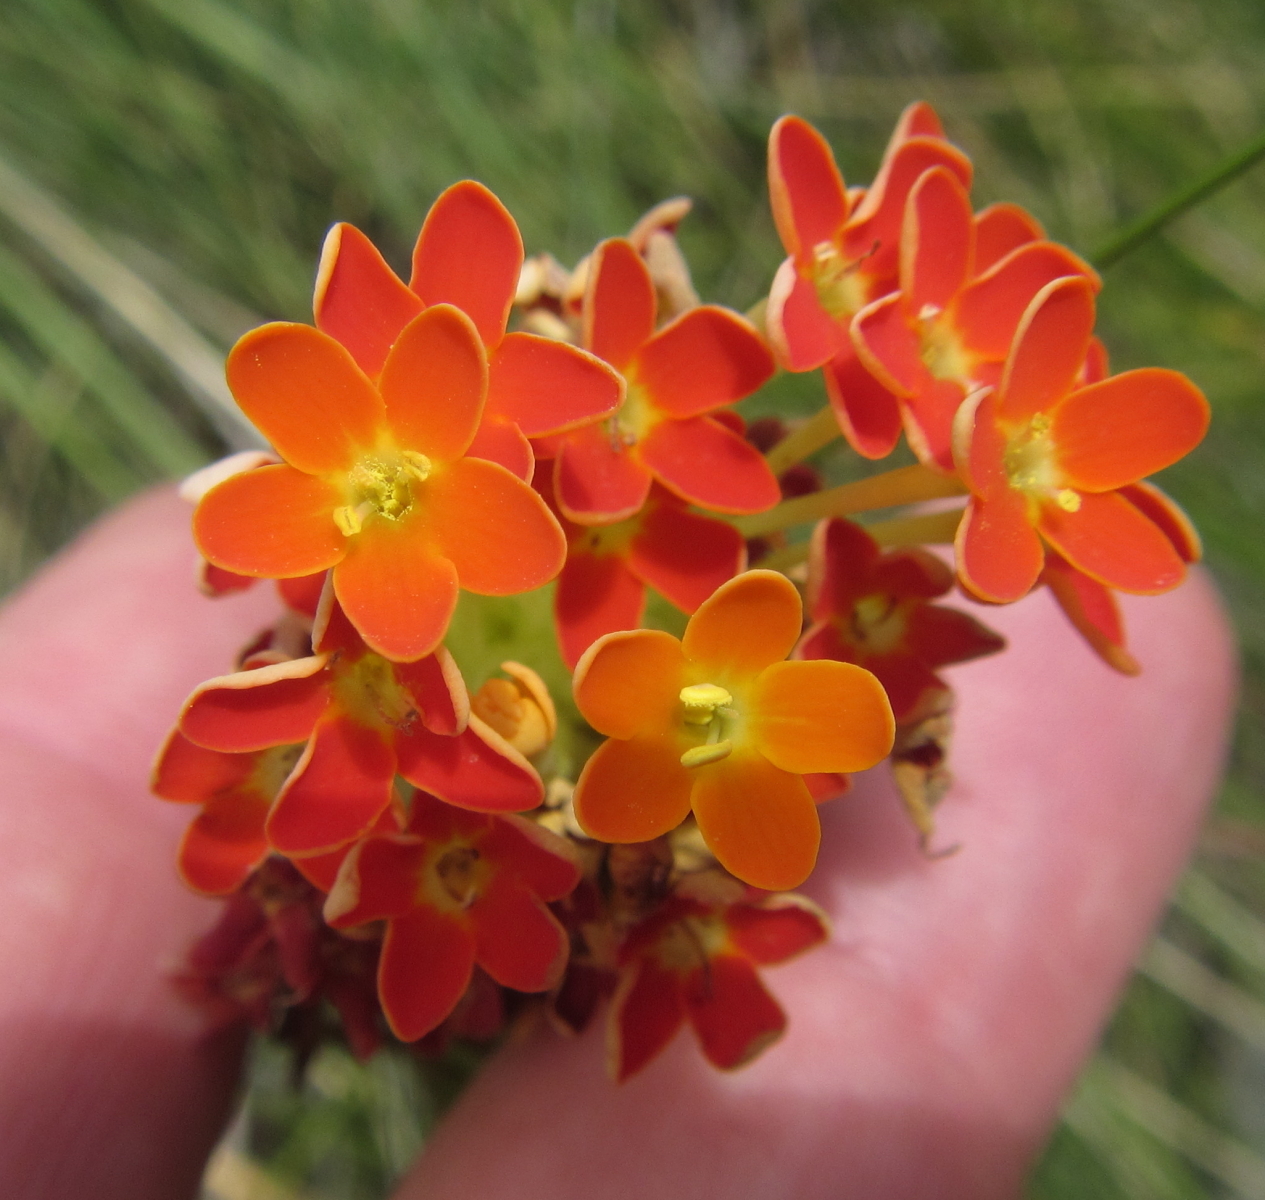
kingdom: Plantae
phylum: Tracheophyta
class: Magnoliopsida
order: Lamiales
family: Scrophulariaceae
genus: Glumicalyx
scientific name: Glumicalyx goseloides
